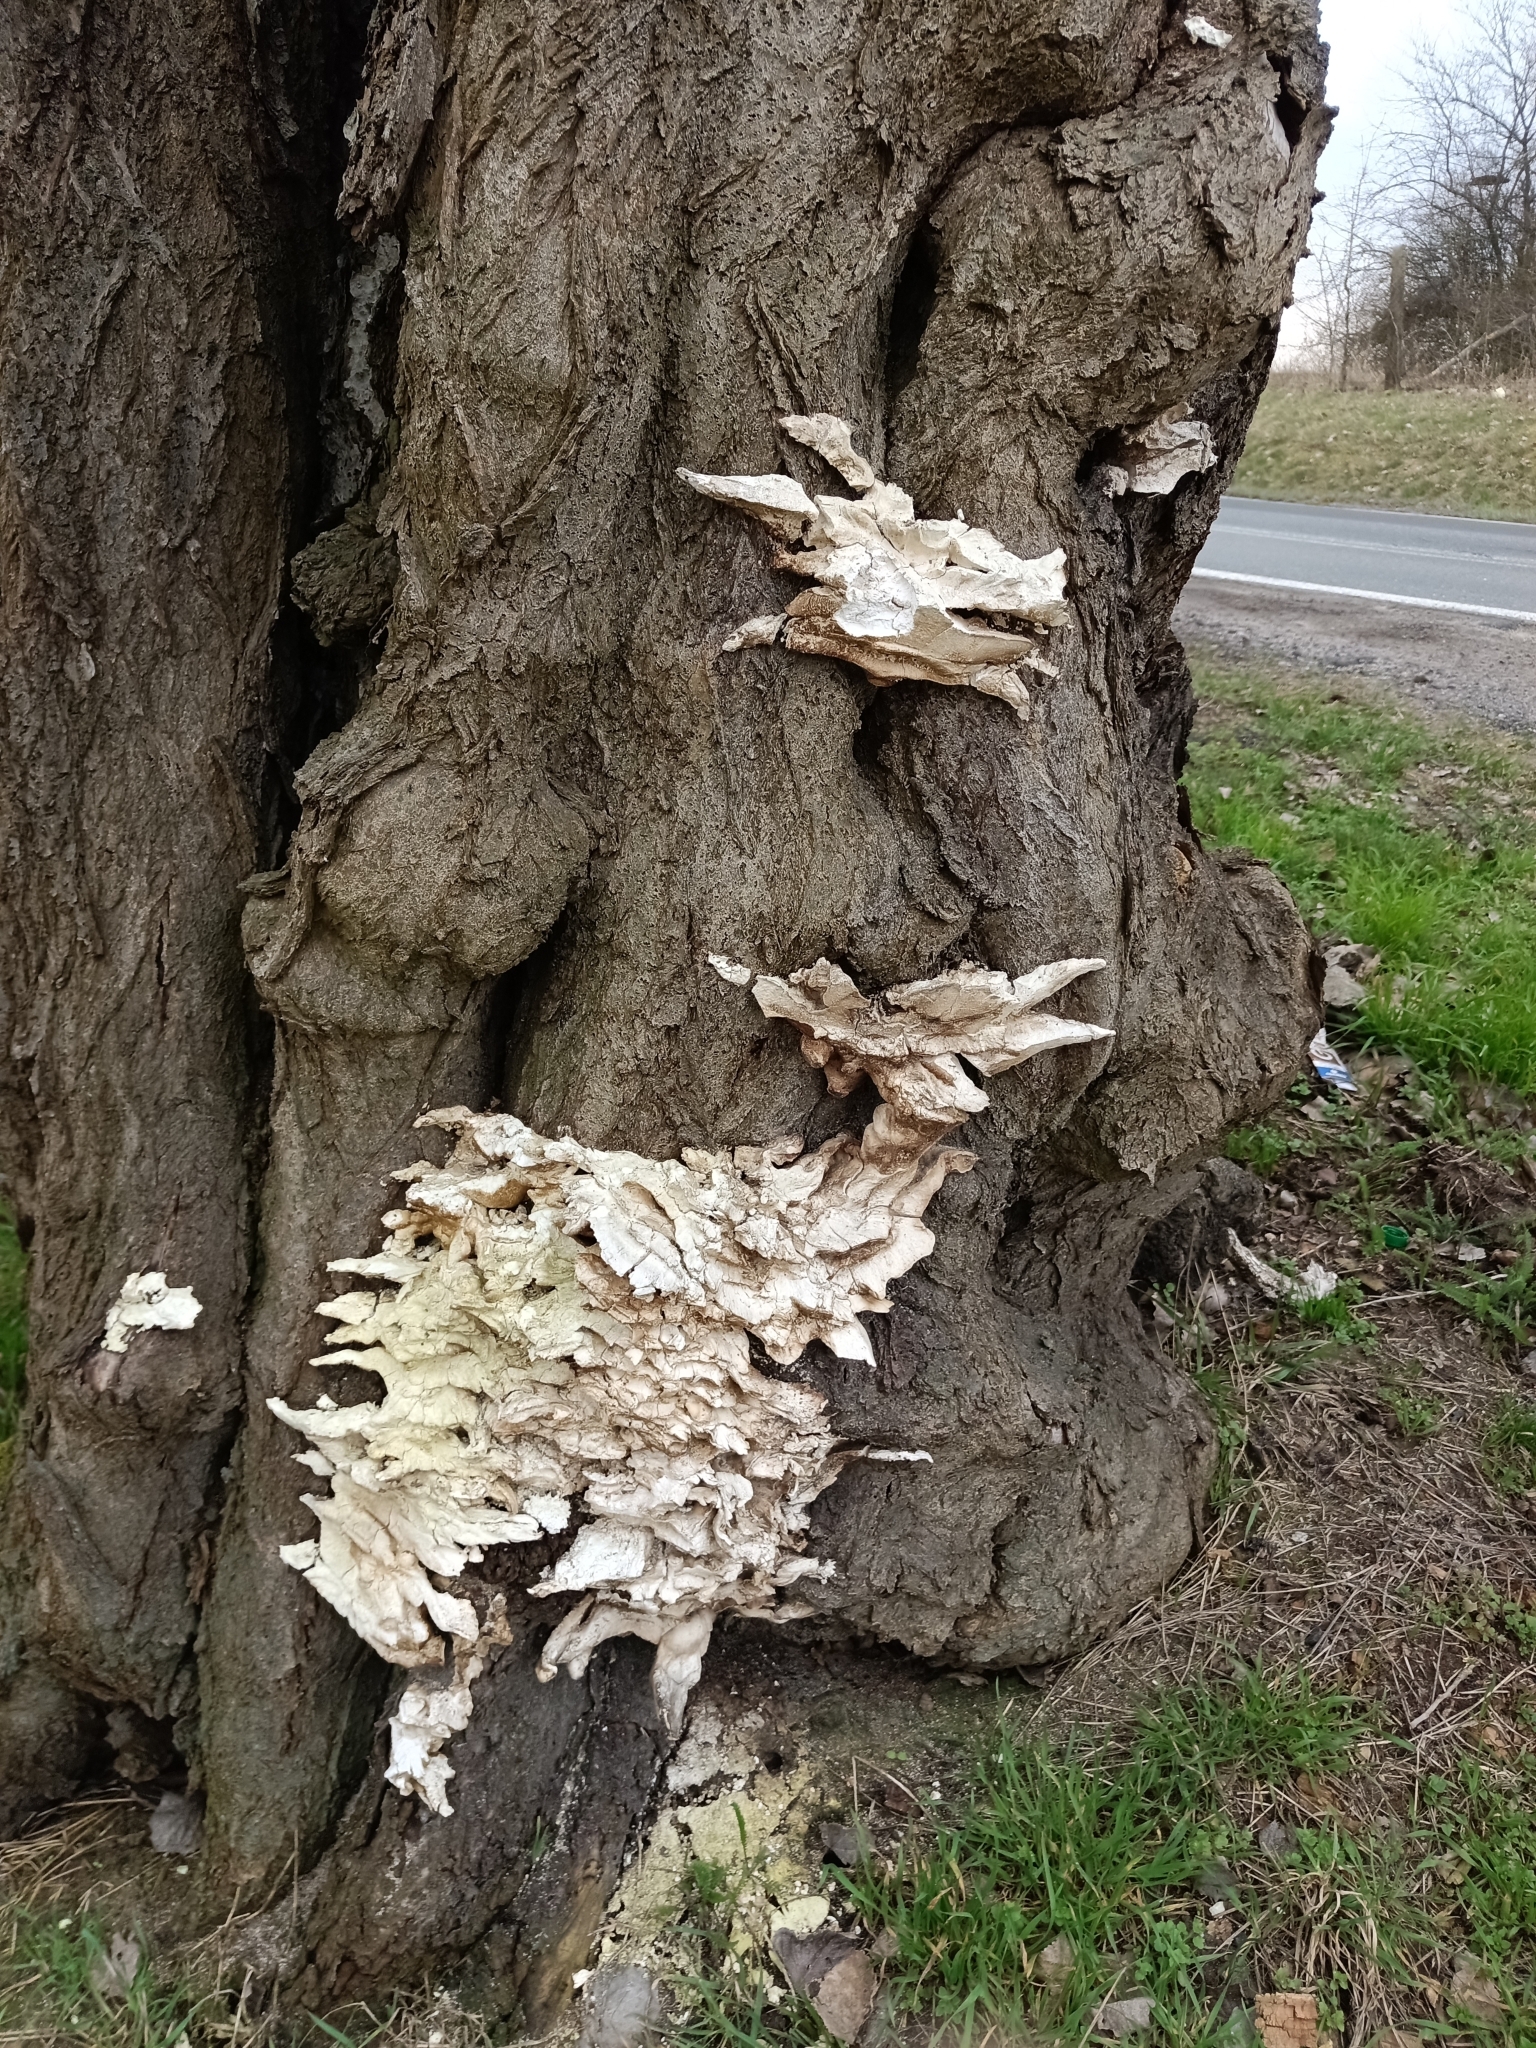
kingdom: Fungi
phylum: Basidiomycota
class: Agaricomycetes
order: Polyporales
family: Laetiporaceae
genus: Laetiporus
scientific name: Laetiporus sulphureus
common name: Chicken of the woods
